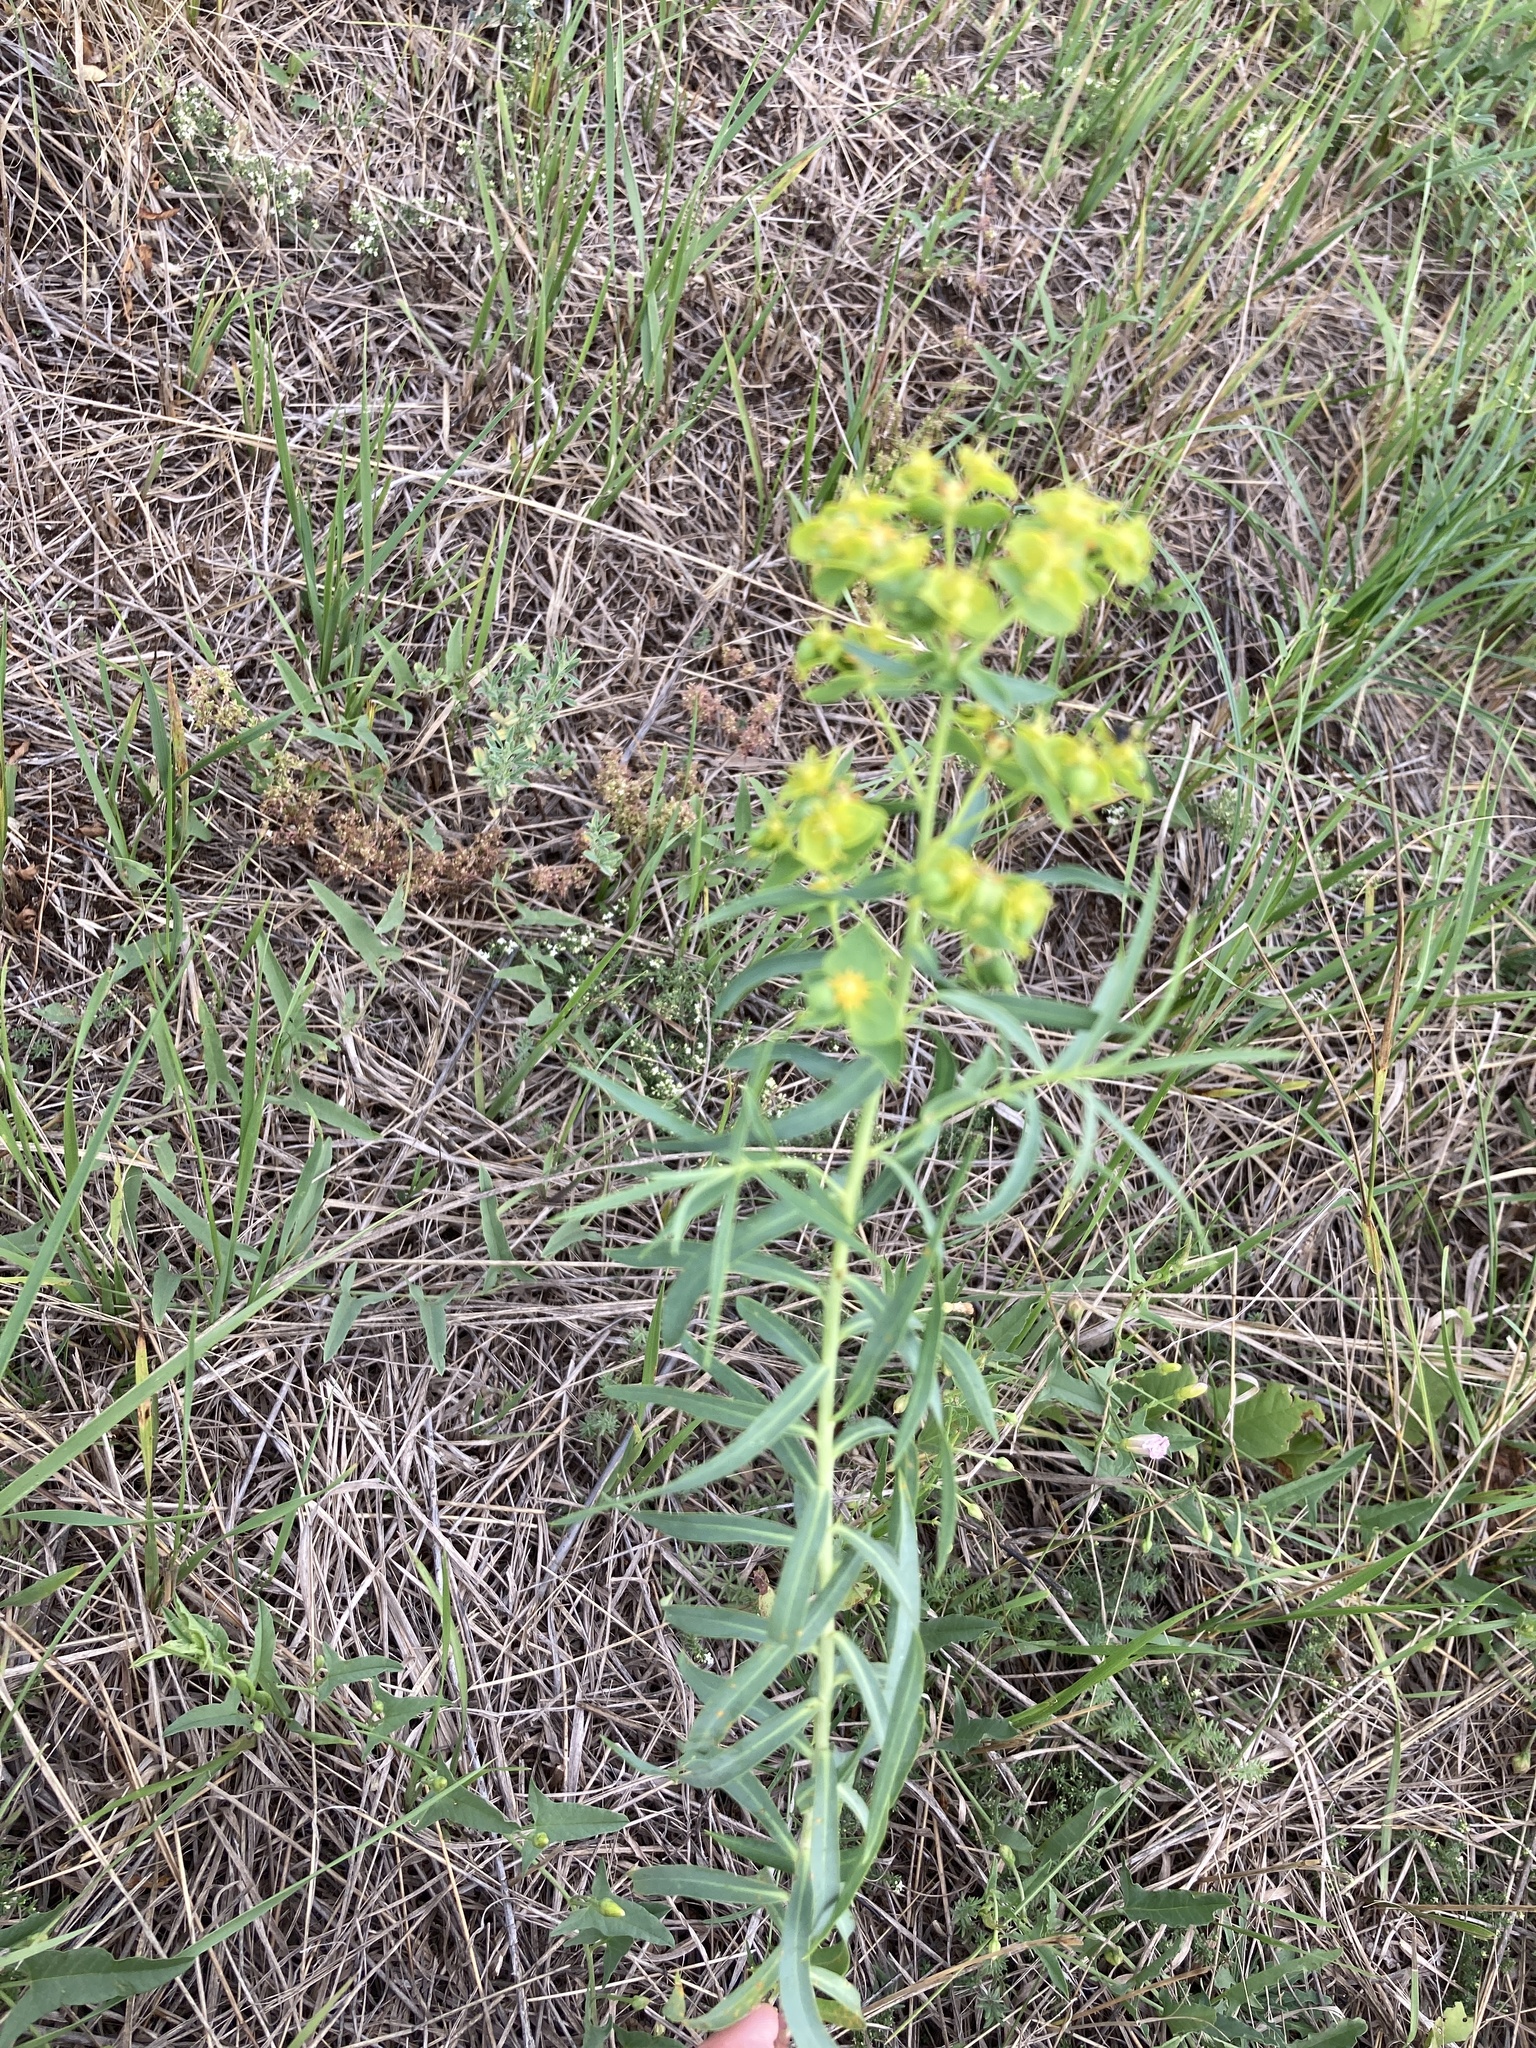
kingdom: Plantae
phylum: Tracheophyta
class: Magnoliopsida
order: Malpighiales
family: Euphorbiaceae
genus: Euphorbia
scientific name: Euphorbia virgata
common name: Leafy spurge
